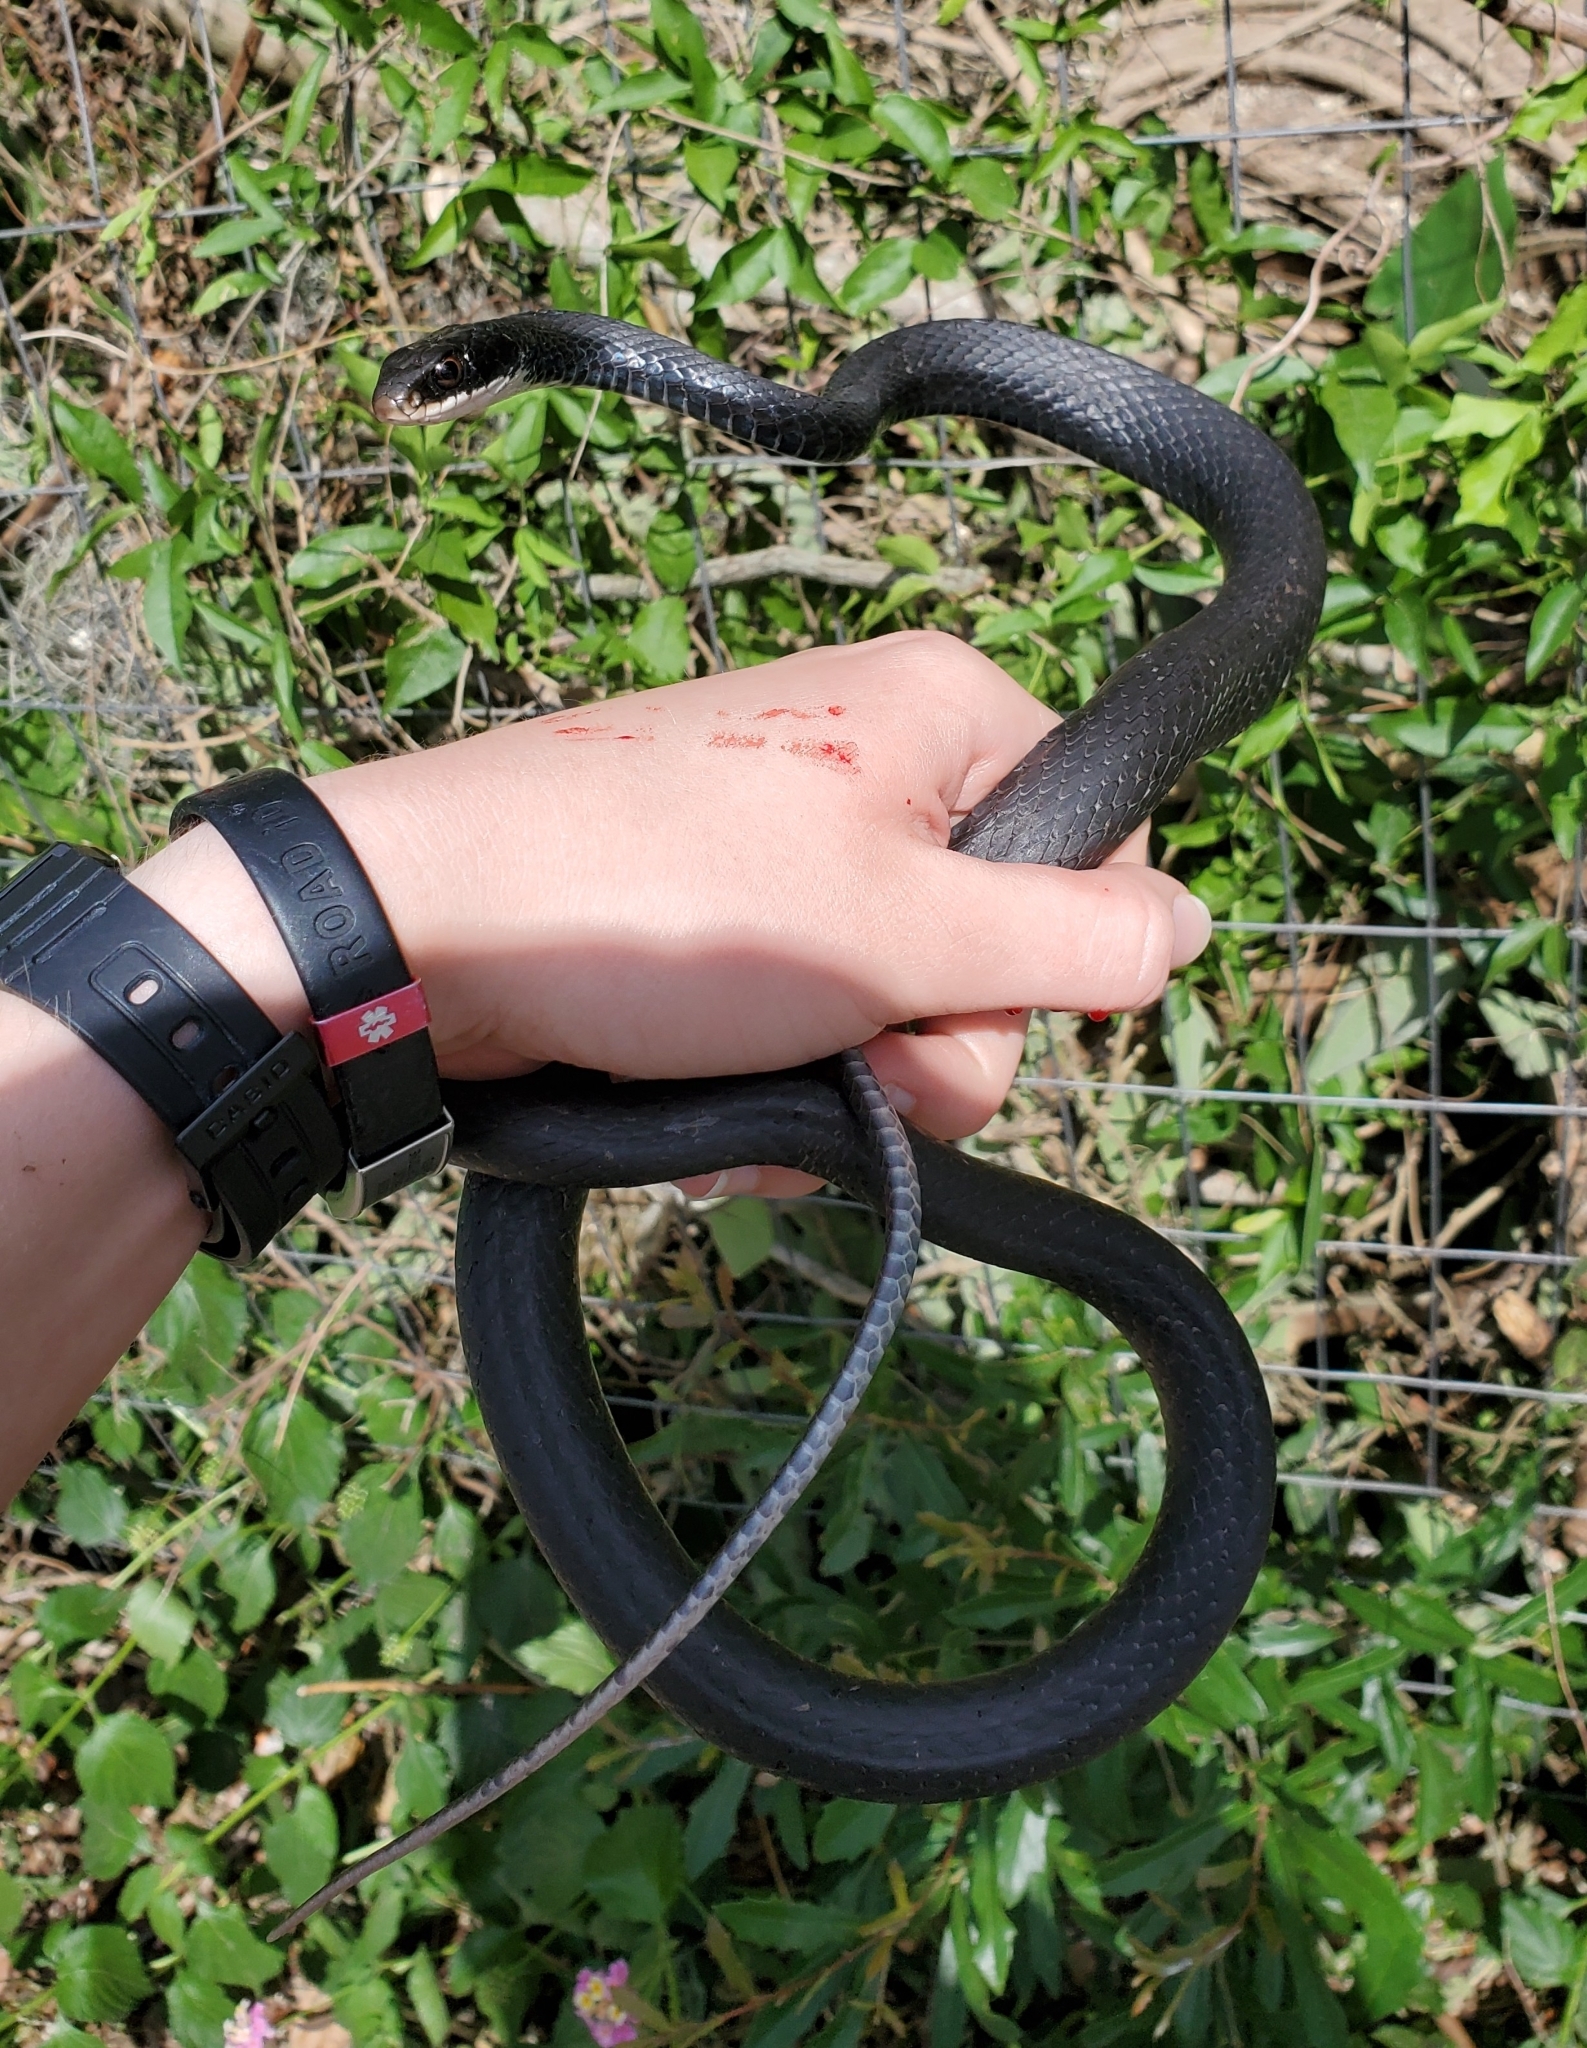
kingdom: Animalia
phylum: Chordata
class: Squamata
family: Colubridae
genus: Coluber
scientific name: Coluber constrictor
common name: Eastern racer
